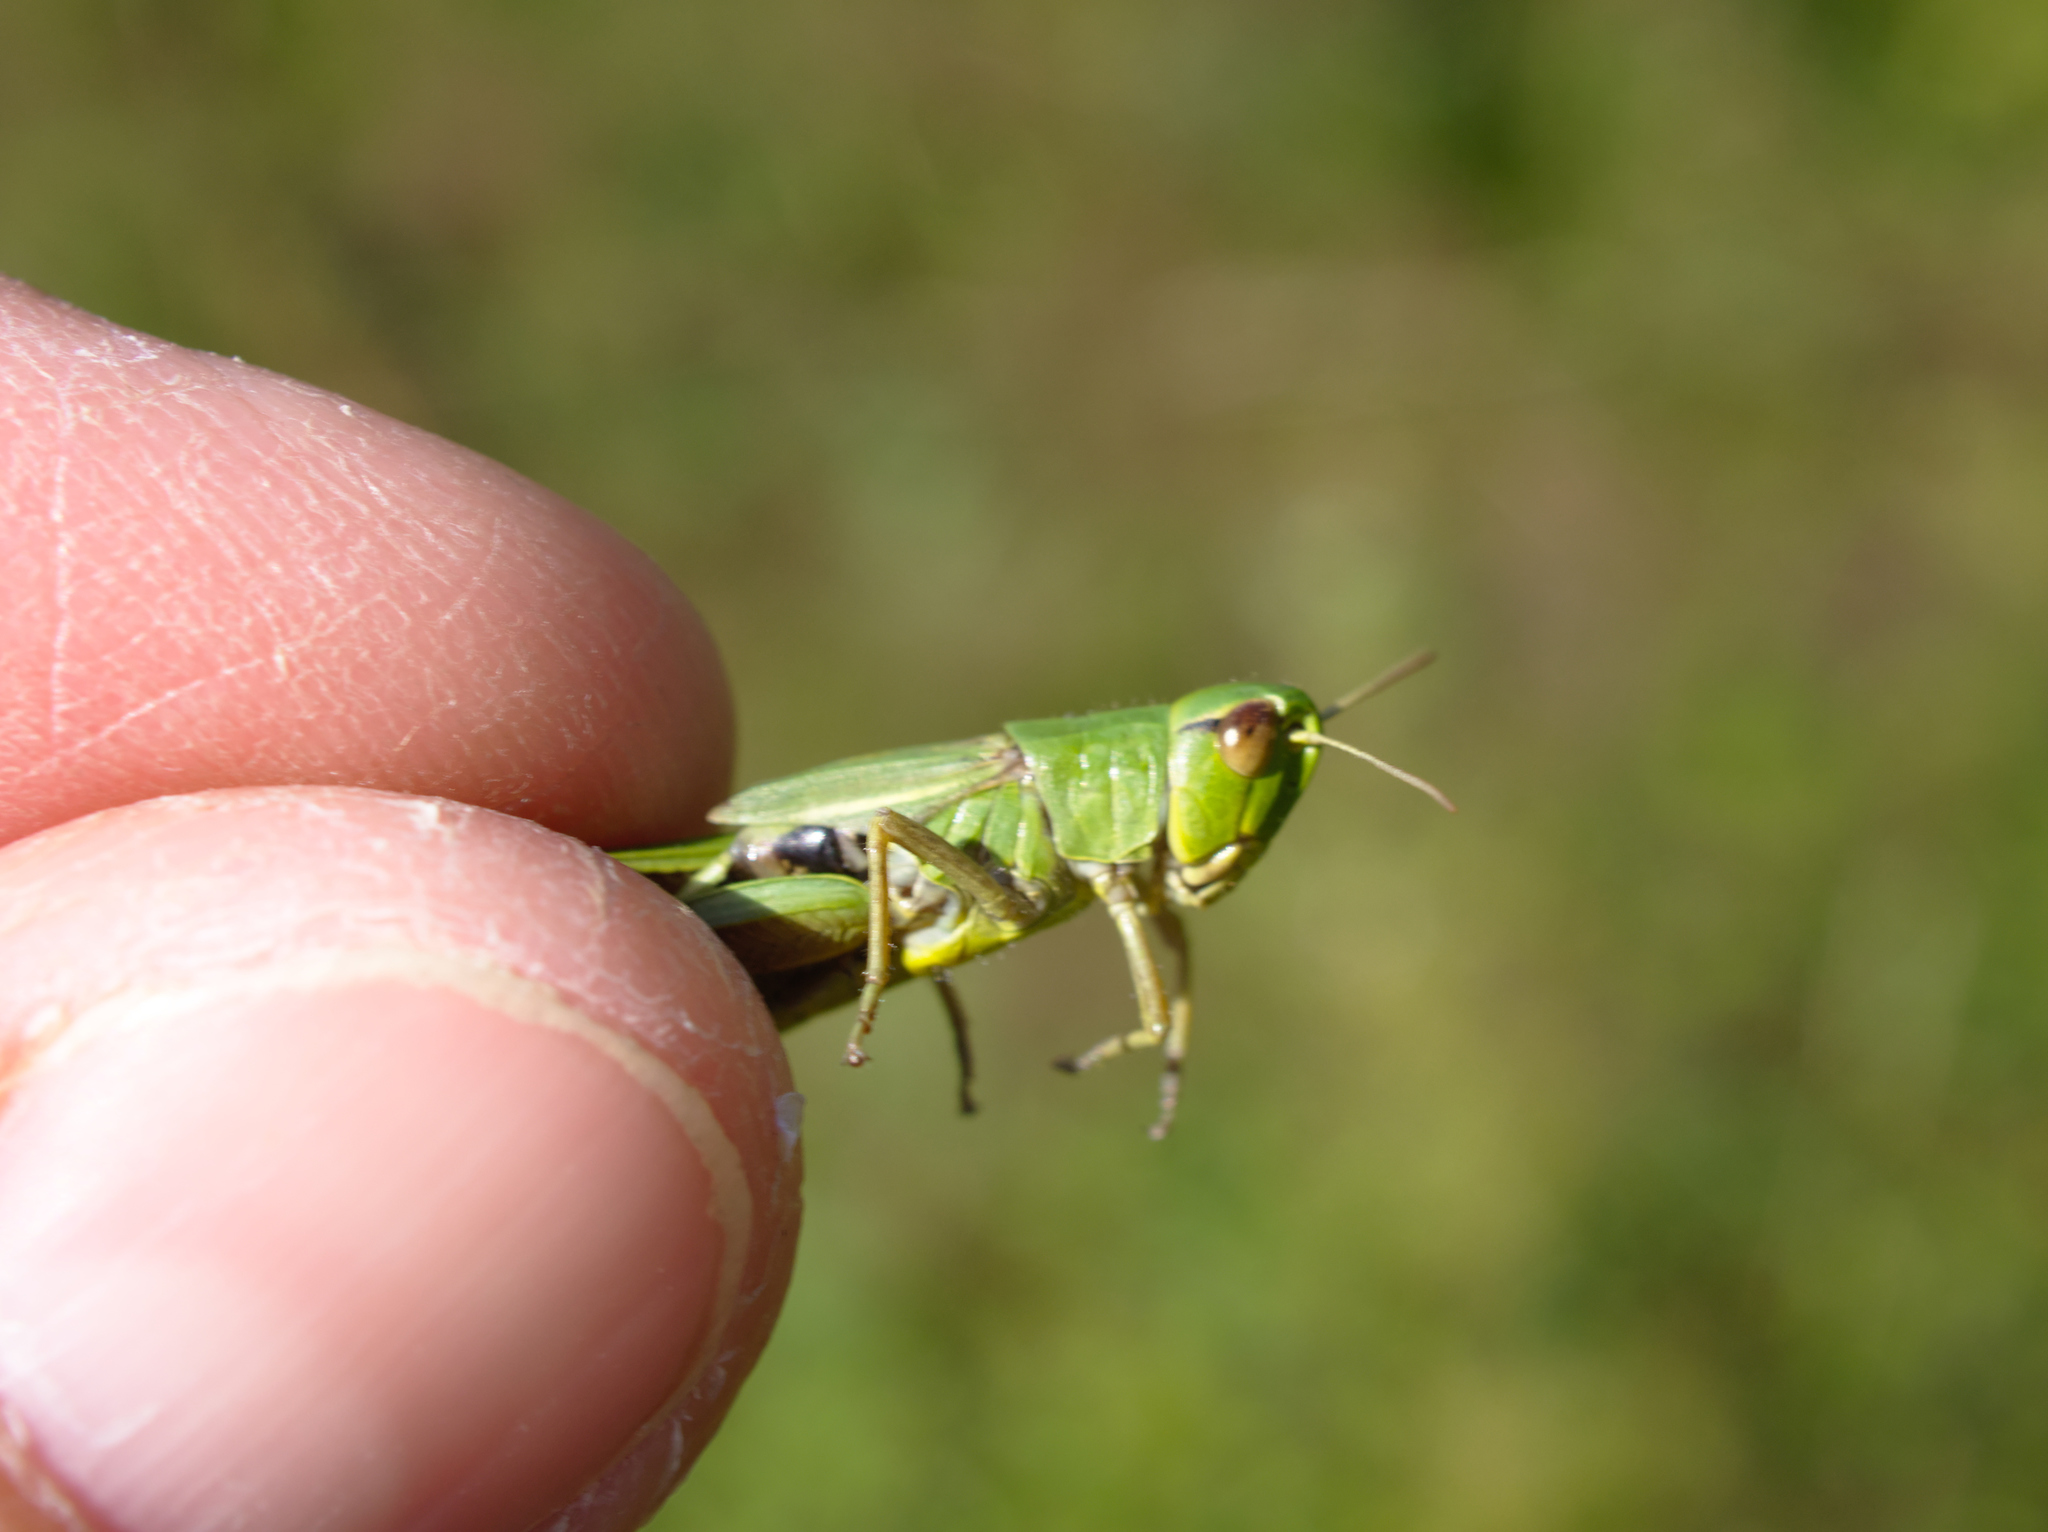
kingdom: Animalia
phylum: Arthropoda
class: Insecta
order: Orthoptera
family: Acrididae
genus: Pseudochorthippus
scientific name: Pseudochorthippus parallelus
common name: Meadow grasshopper
